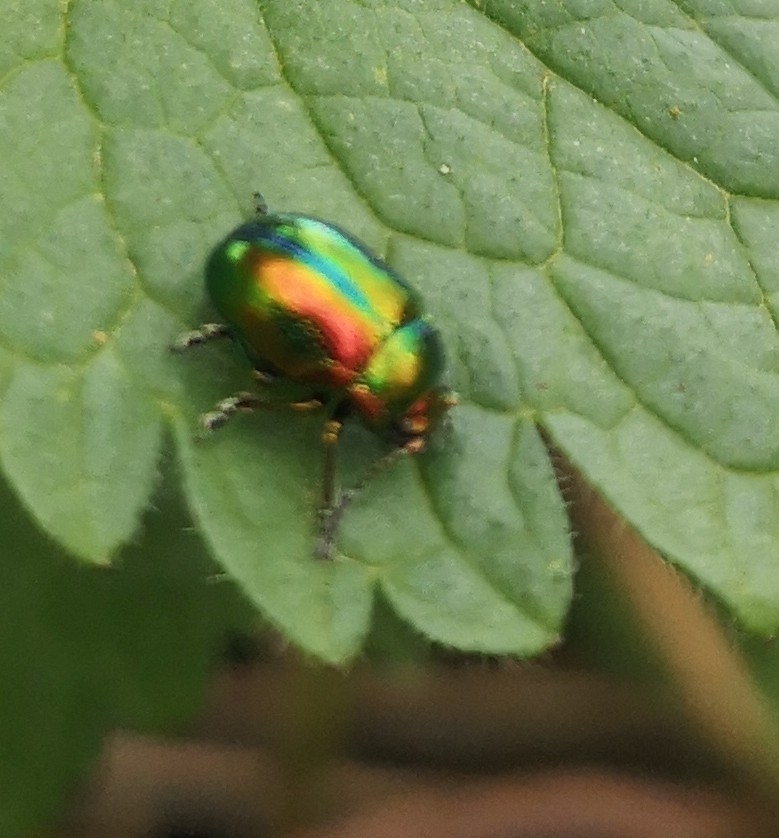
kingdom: Animalia
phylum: Arthropoda
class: Insecta
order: Coleoptera
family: Chrysomelidae
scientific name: Chrysomelidae
